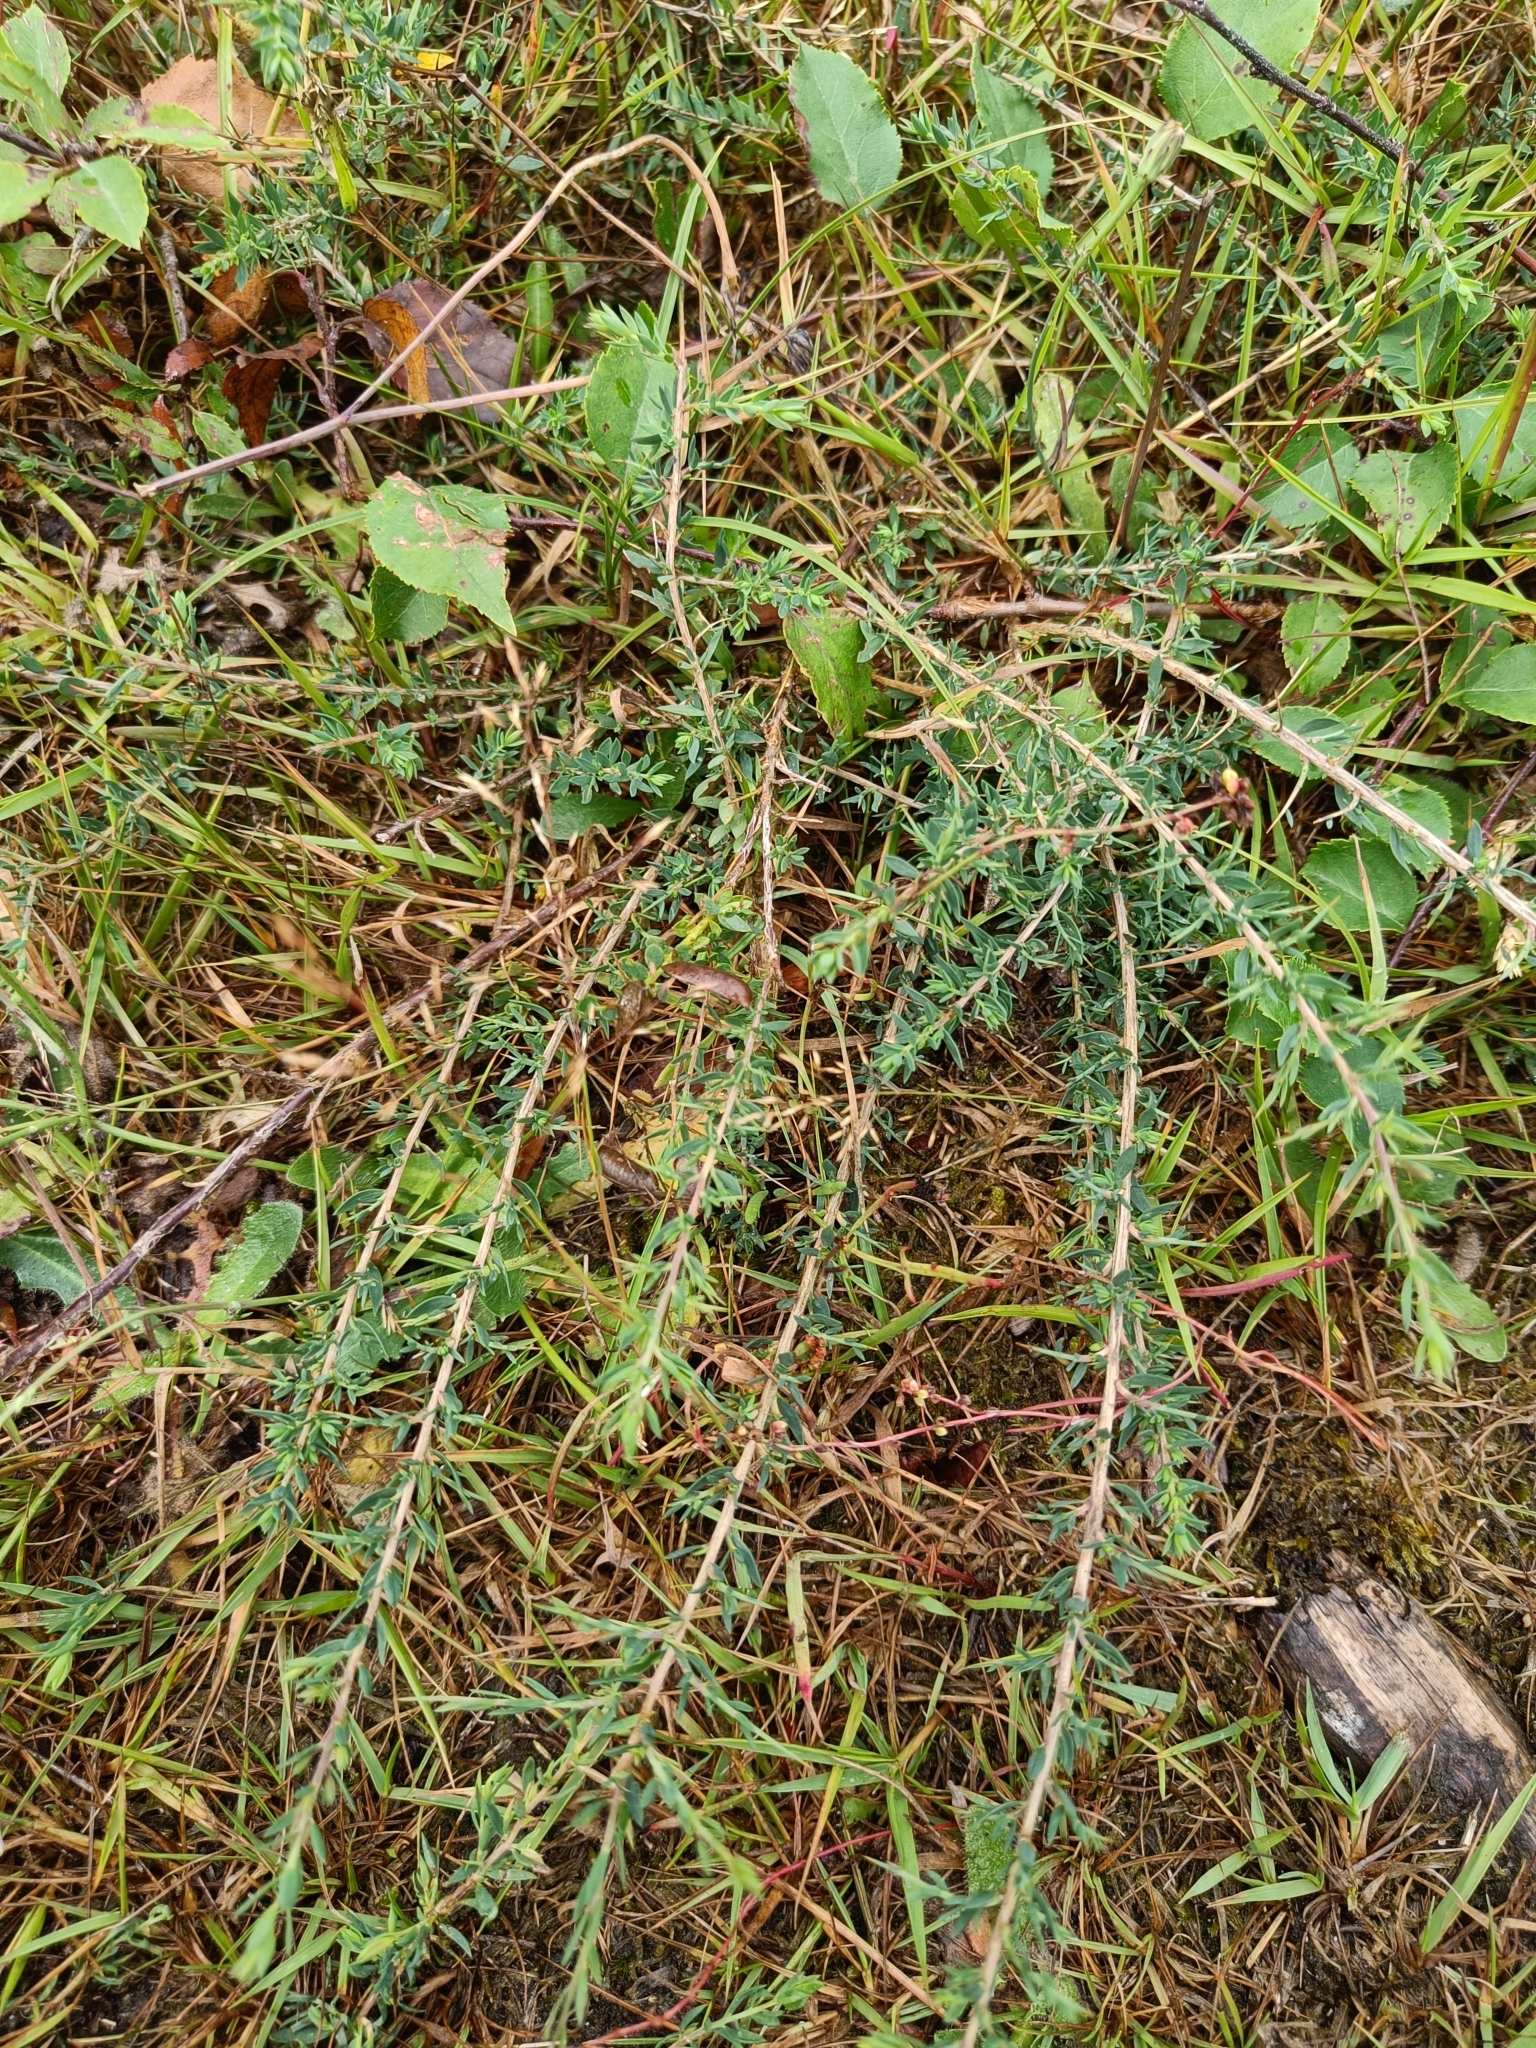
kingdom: Plantae
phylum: Tracheophyta
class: Magnoliopsida
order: Fabales
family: Fabaceae
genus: Genista
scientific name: Genista anglica
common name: Petty whin
